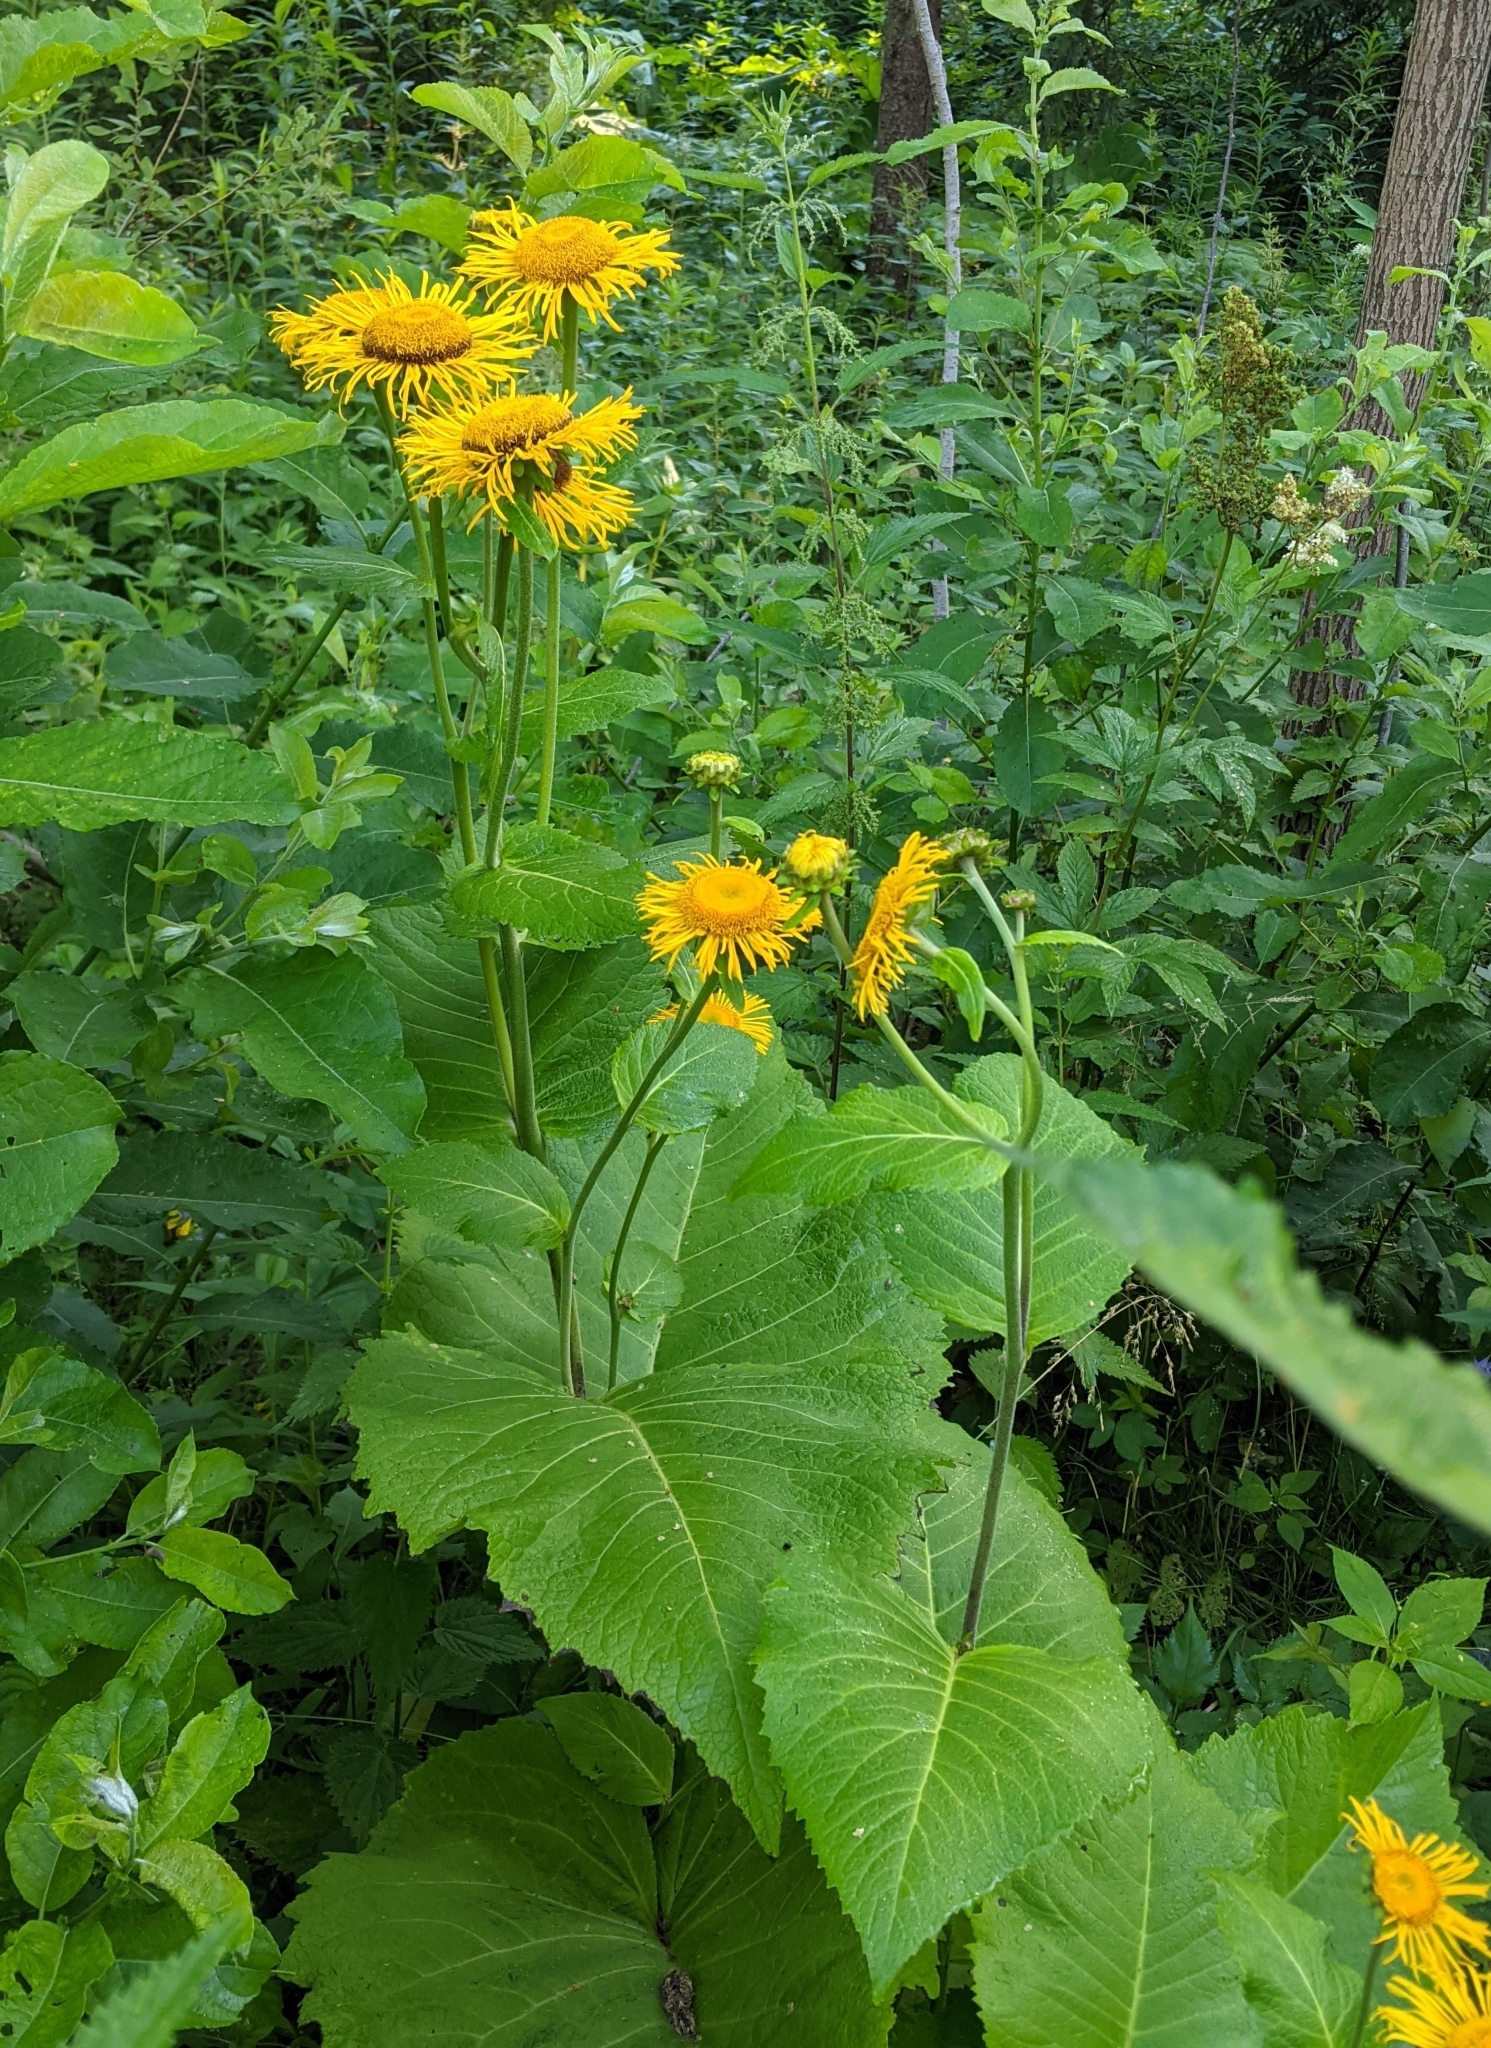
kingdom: Plantae
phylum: Tracheophyta
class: Magnoliopsida
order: Asterales
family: Asteraceae
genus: Telekia
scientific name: Telekia speciosa
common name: Yellow oxeye
